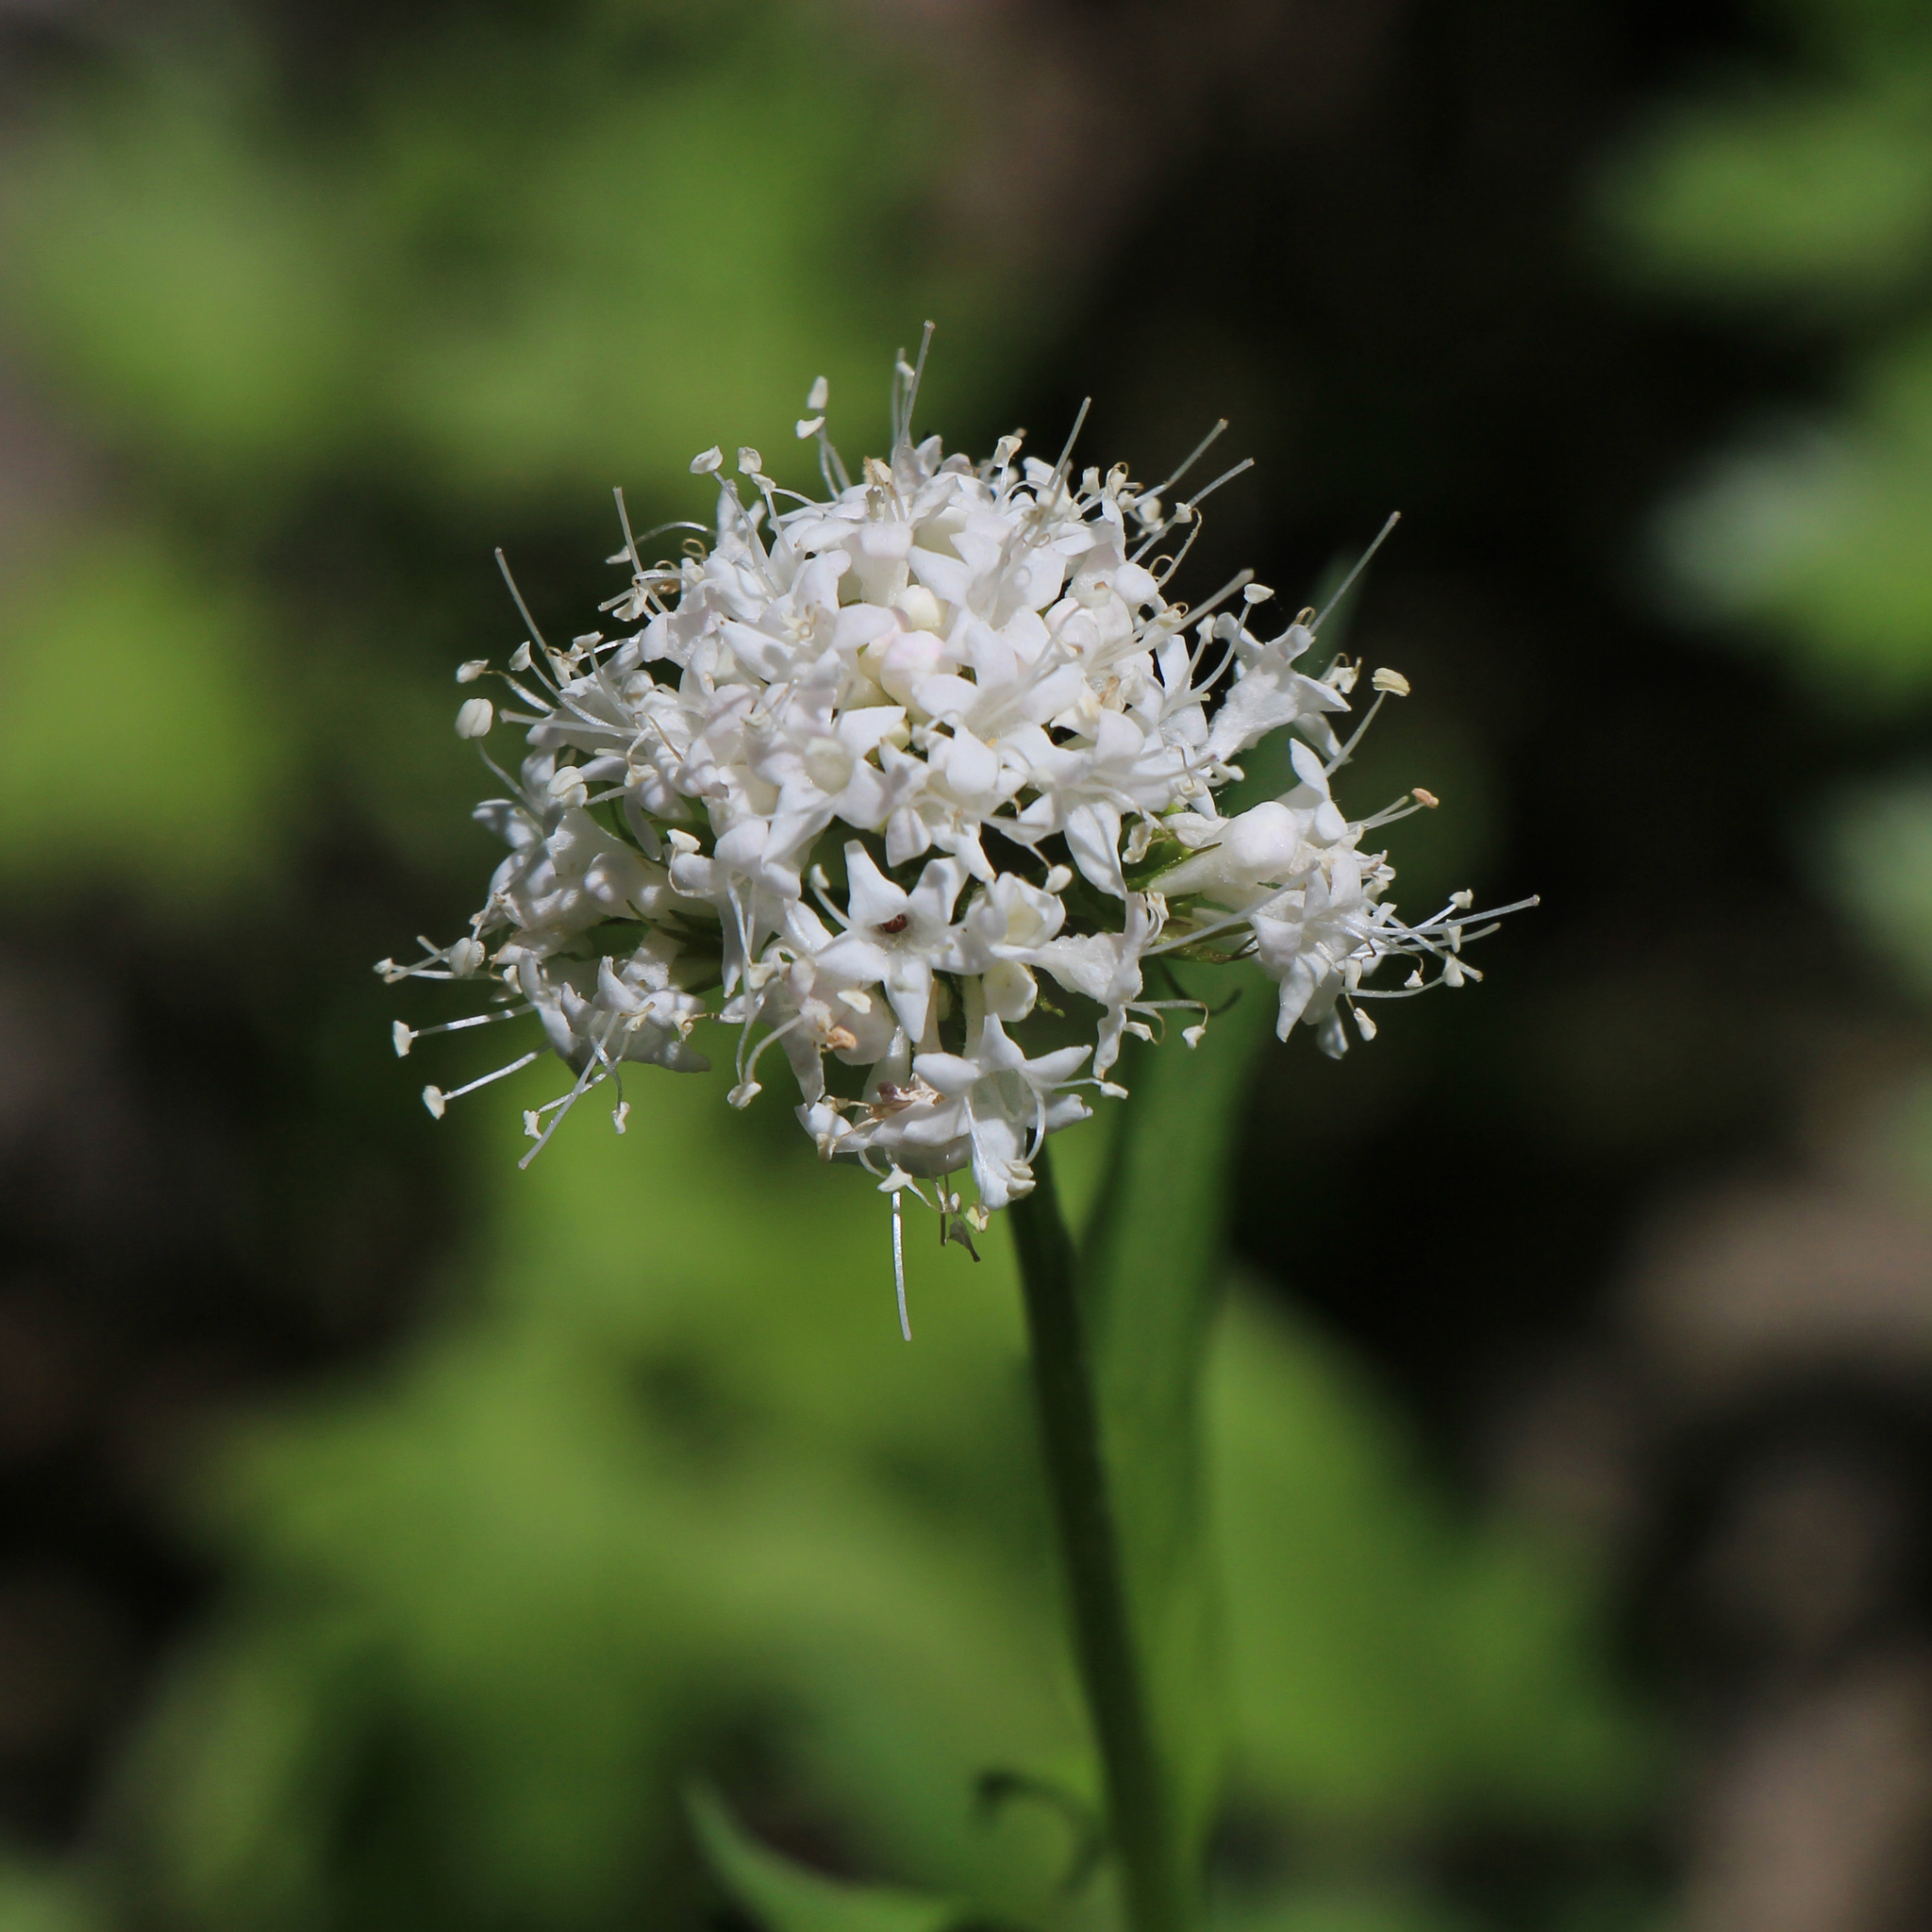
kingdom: Plantae
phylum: Tracheophyta
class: Magnoliopsida
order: Dipsacales
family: Caprifoliaceae
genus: Valeriana
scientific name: Valeriana sitchensis
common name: Pacific valerian
